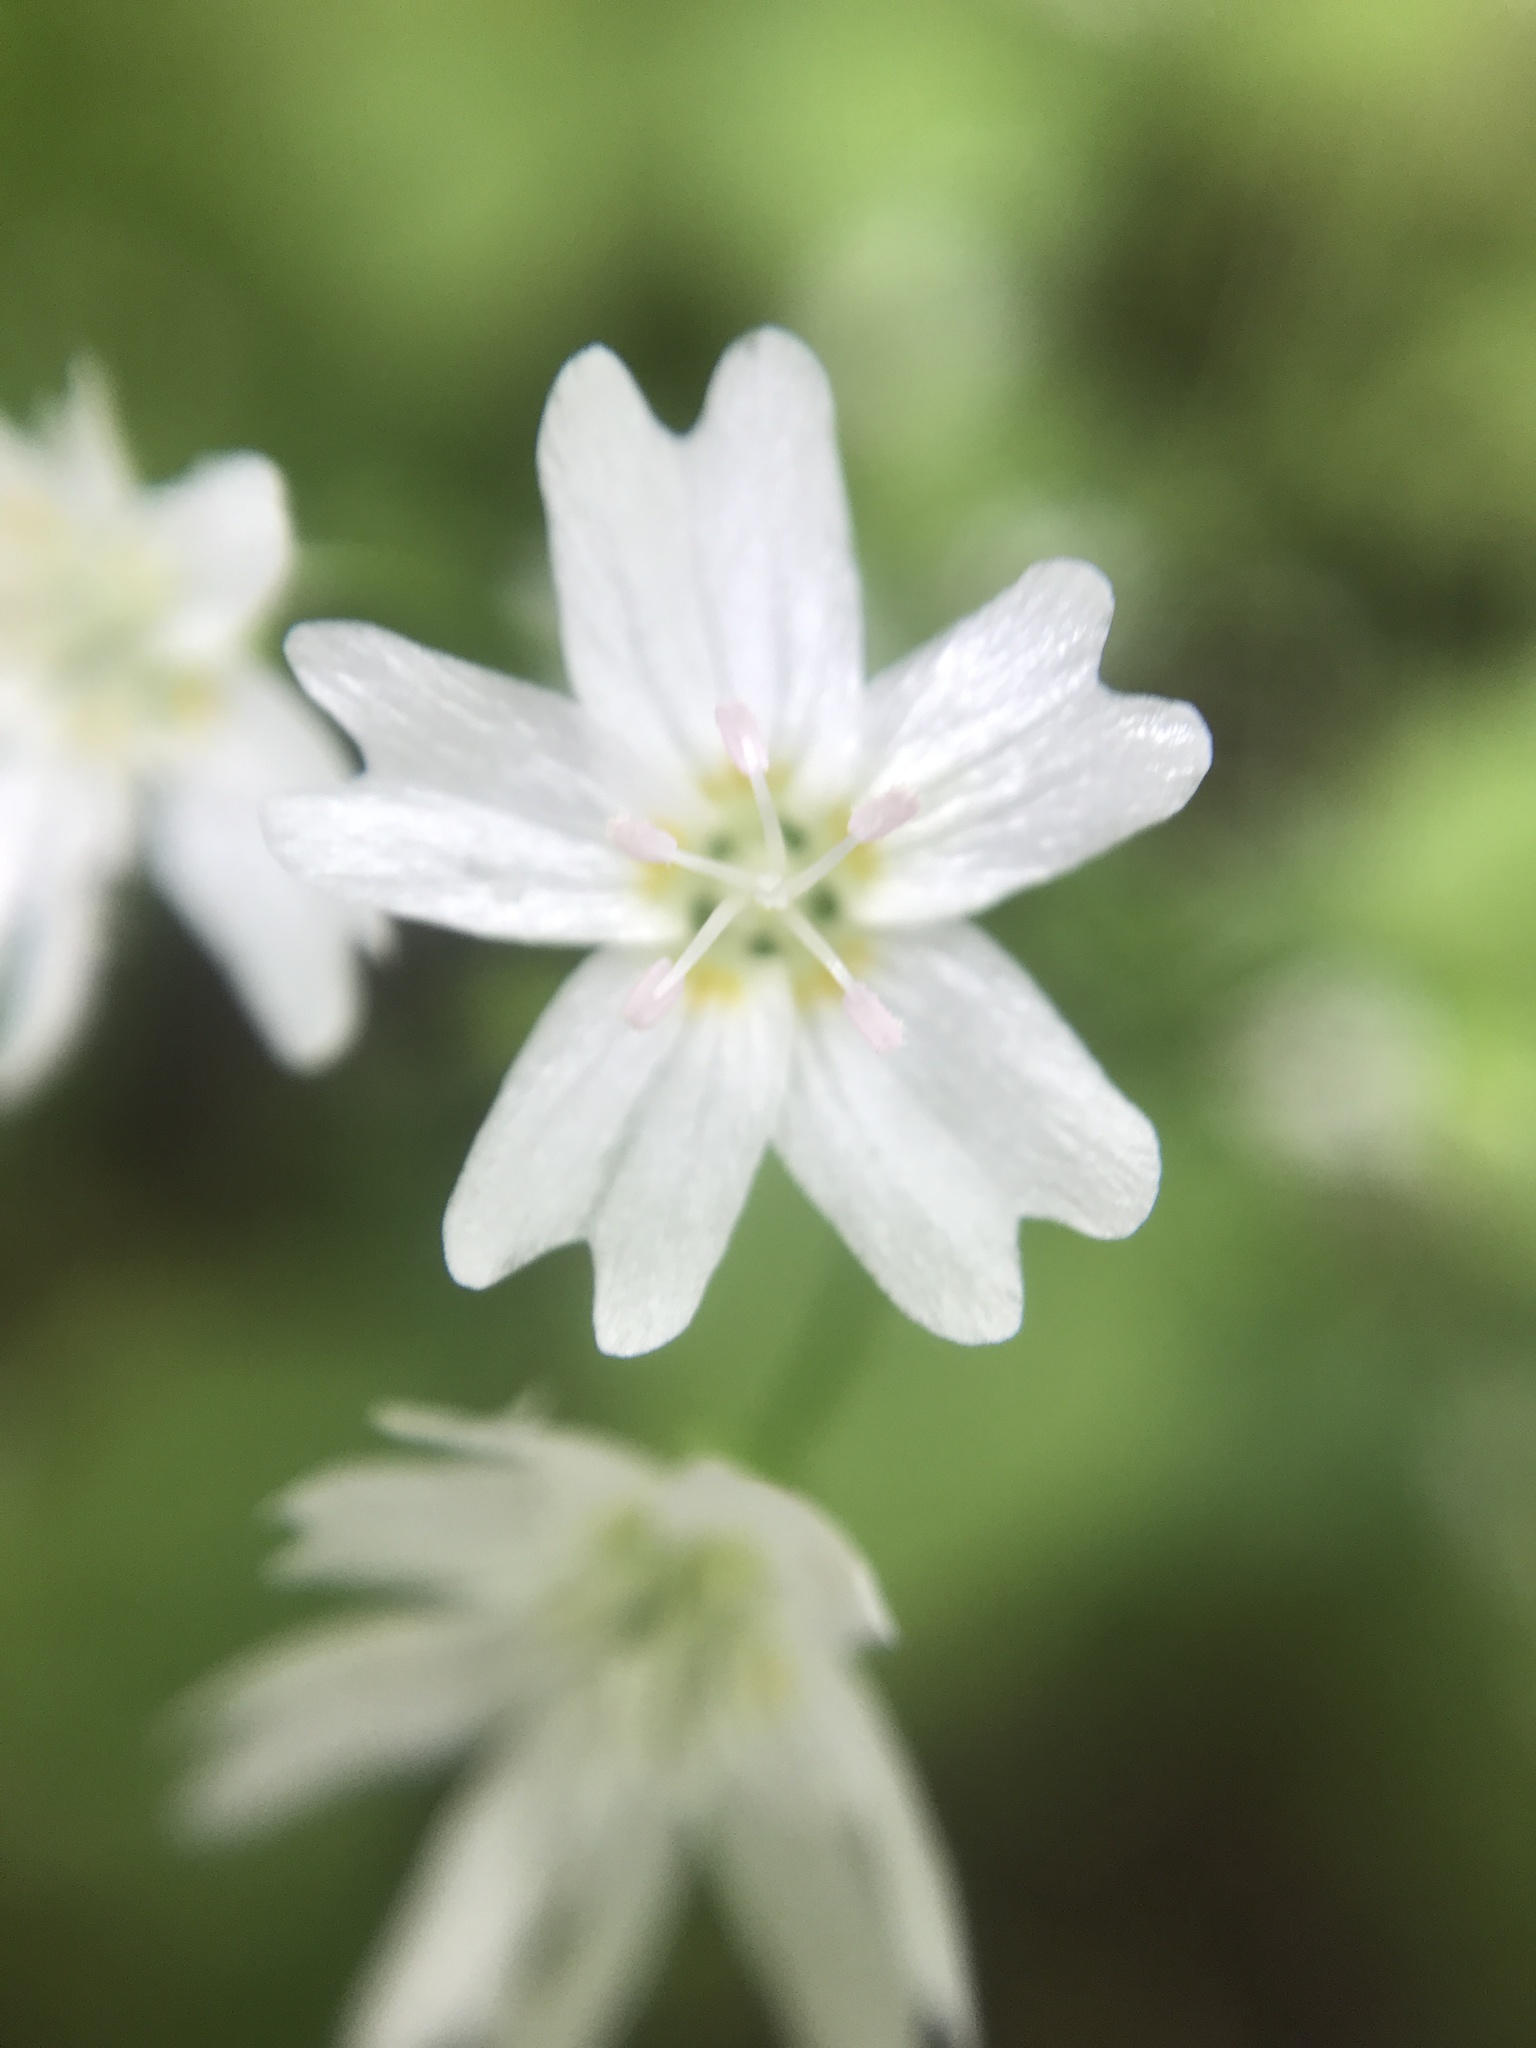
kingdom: Plantae
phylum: Tracheophyta
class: Magnoliopsida
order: Caryophyllales
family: Montiaceae
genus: Claytonia
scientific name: Claytonia sibirica
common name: Pink purslane
